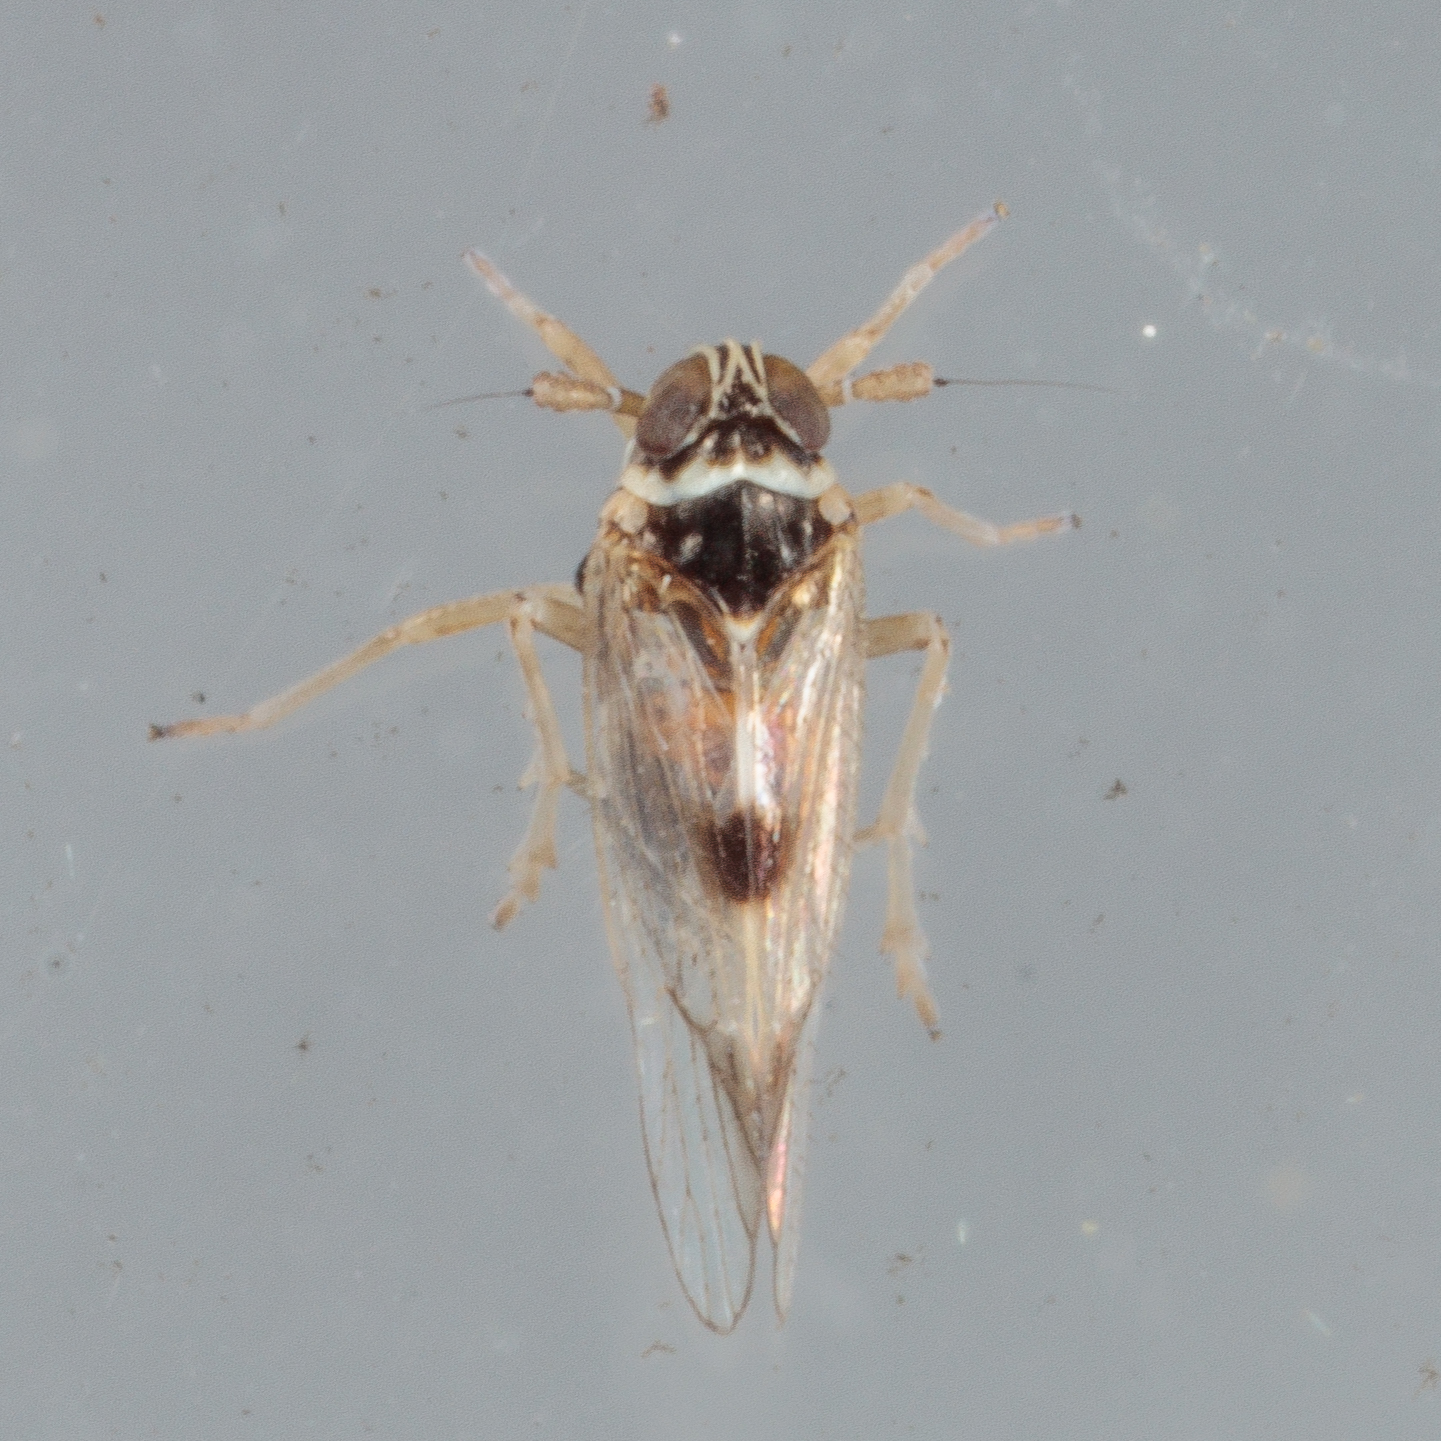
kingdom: Animalia
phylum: Arthropoda
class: Insecta
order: Hemiptera
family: Delphacidae
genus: Chionomus
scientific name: Chionomus
